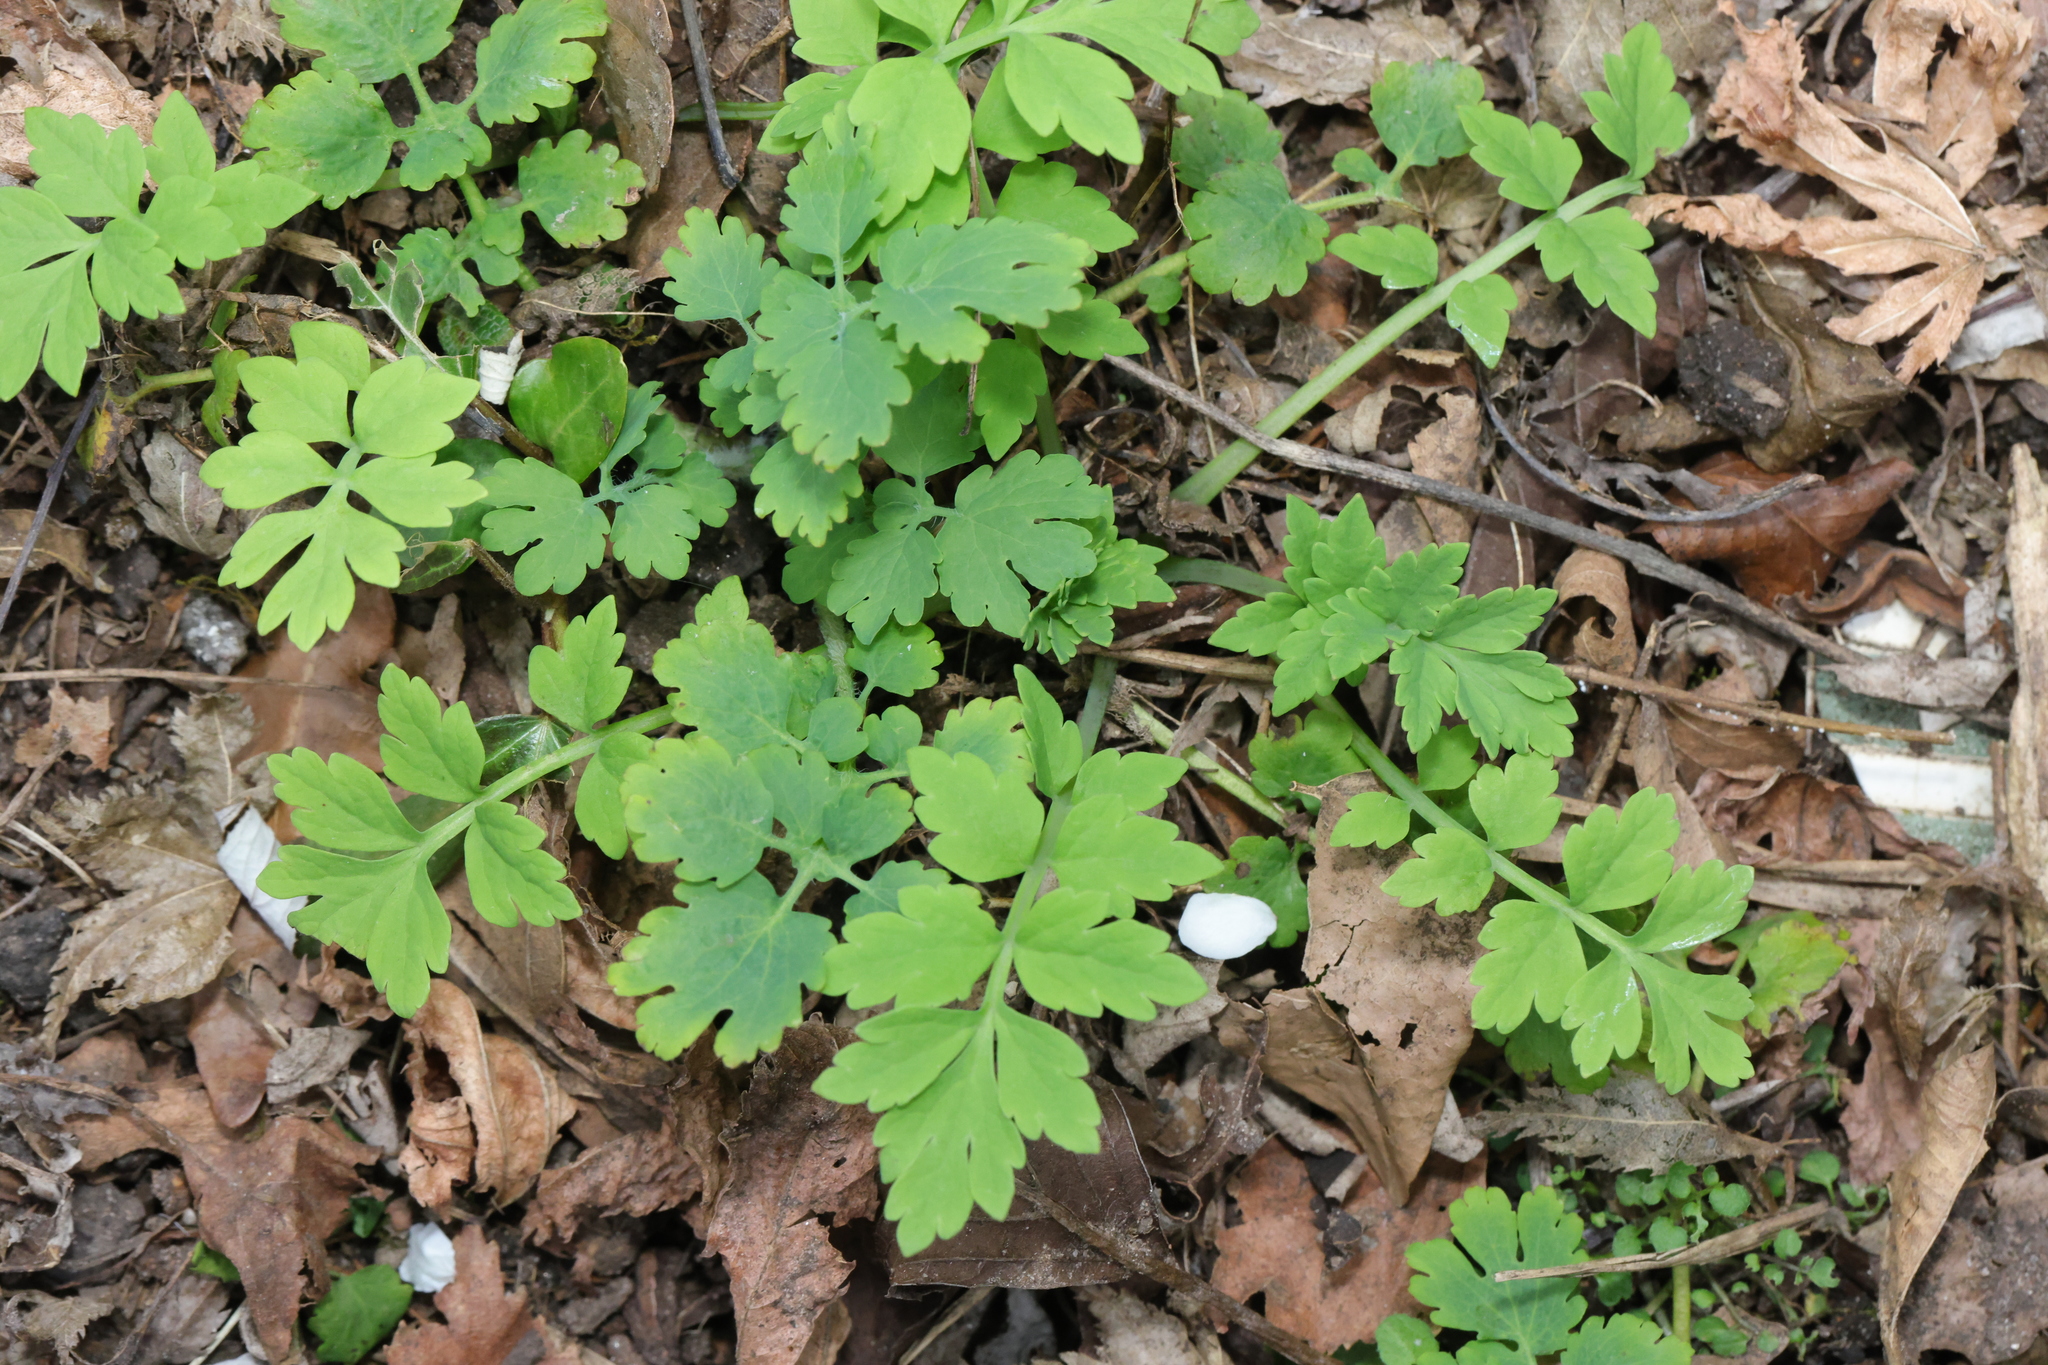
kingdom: Plantae
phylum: Tracheophyta
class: Magnoliopsida
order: Ranunculales
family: Papaveraceae
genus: Papaver
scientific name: Papaver cambricum
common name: Poppy
